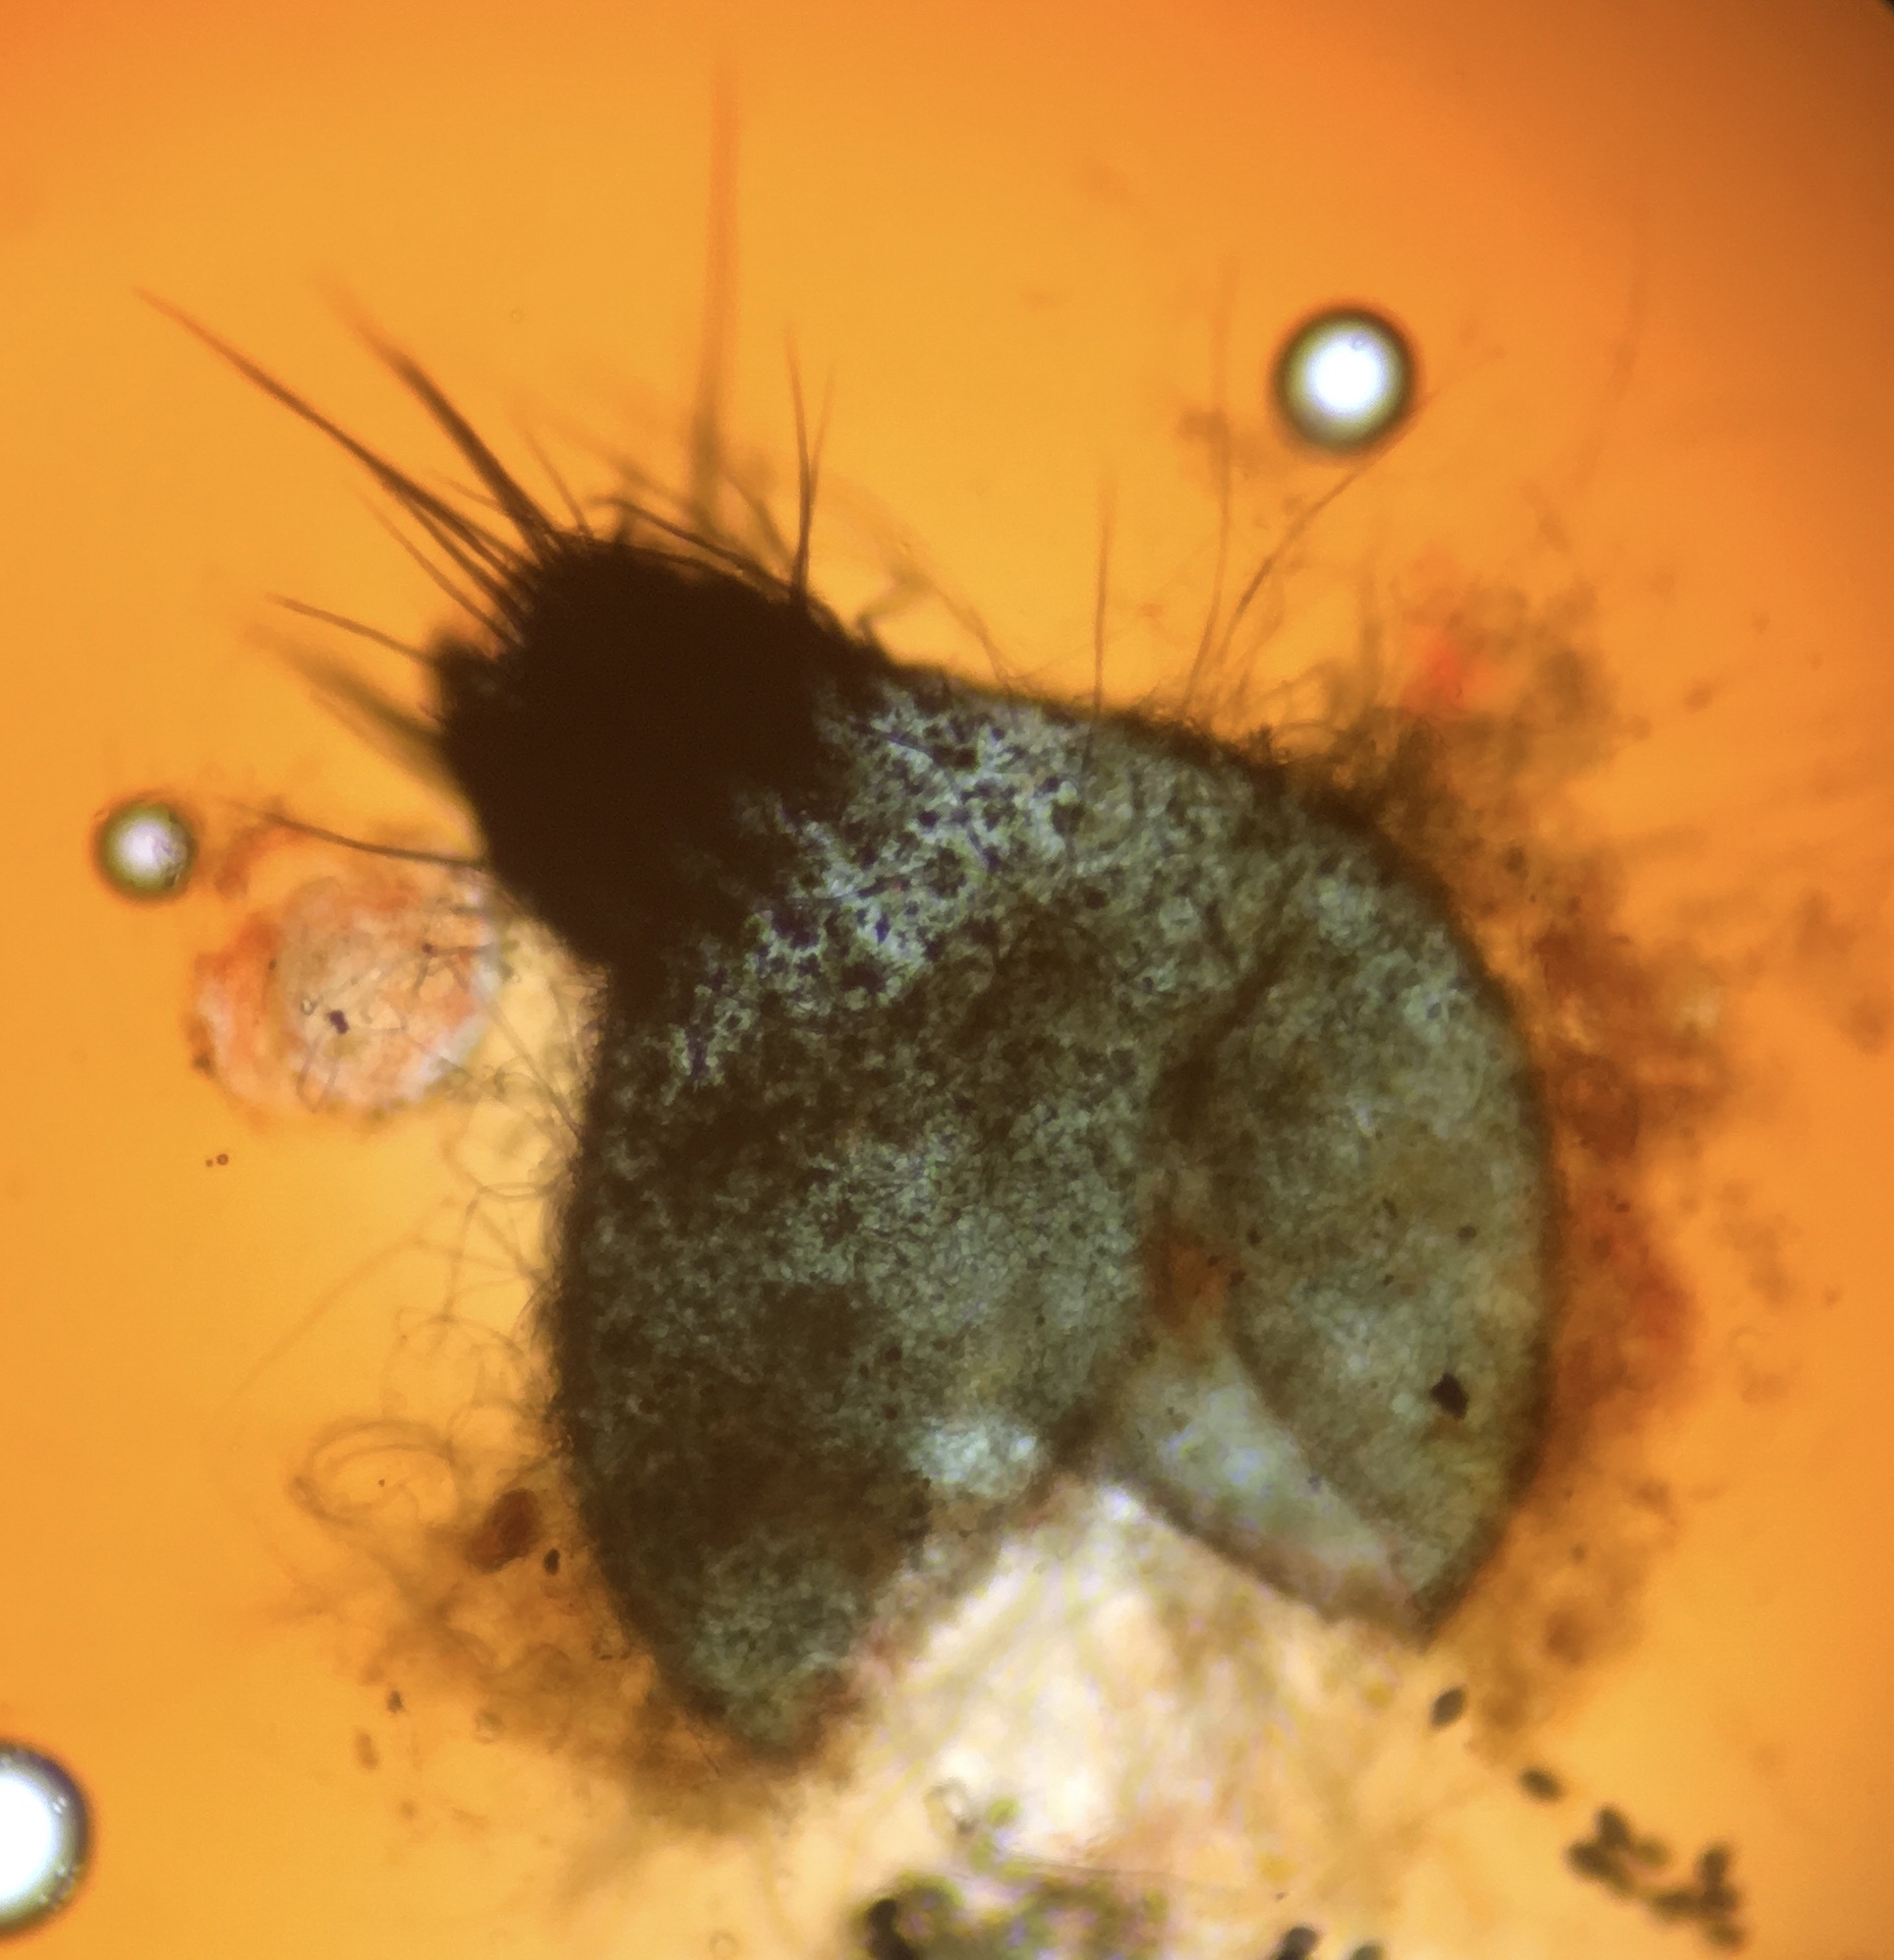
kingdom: Fungi
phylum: Ascomycota
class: Sordariomycetes
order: Sordariales
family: Podosporaceae
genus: Triangularia
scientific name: Triangularia setosa
